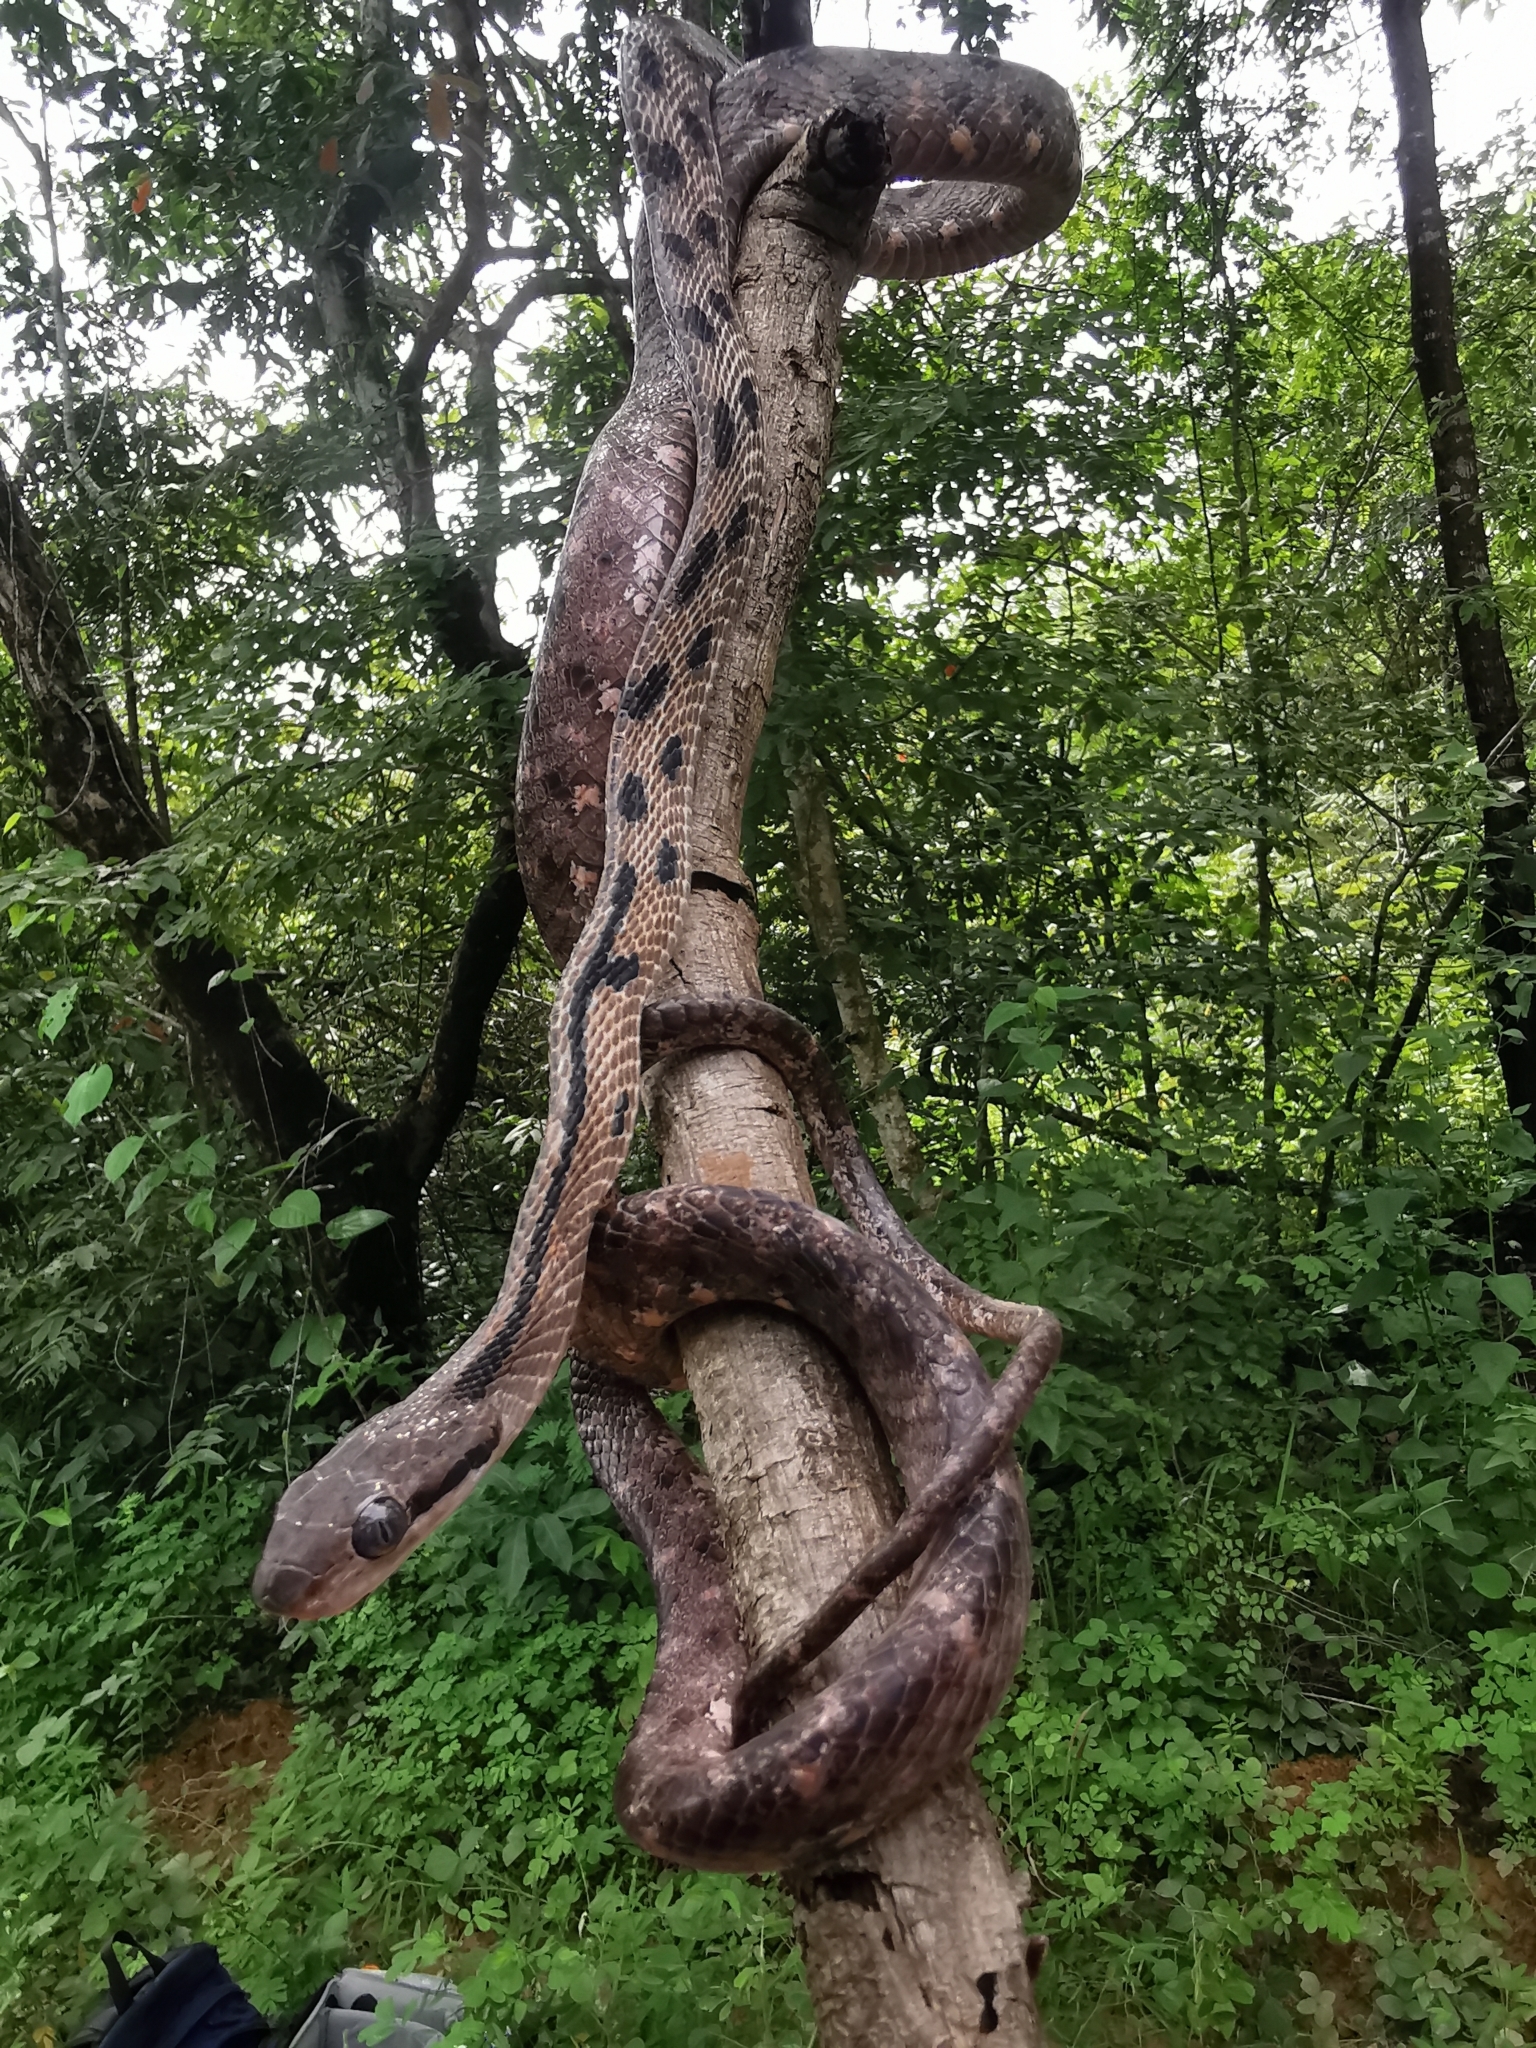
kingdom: Animalia
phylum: Chordata
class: Squamata
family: Colubridae
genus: Boiga
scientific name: Boiga siamensis
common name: Eyed cat snake
